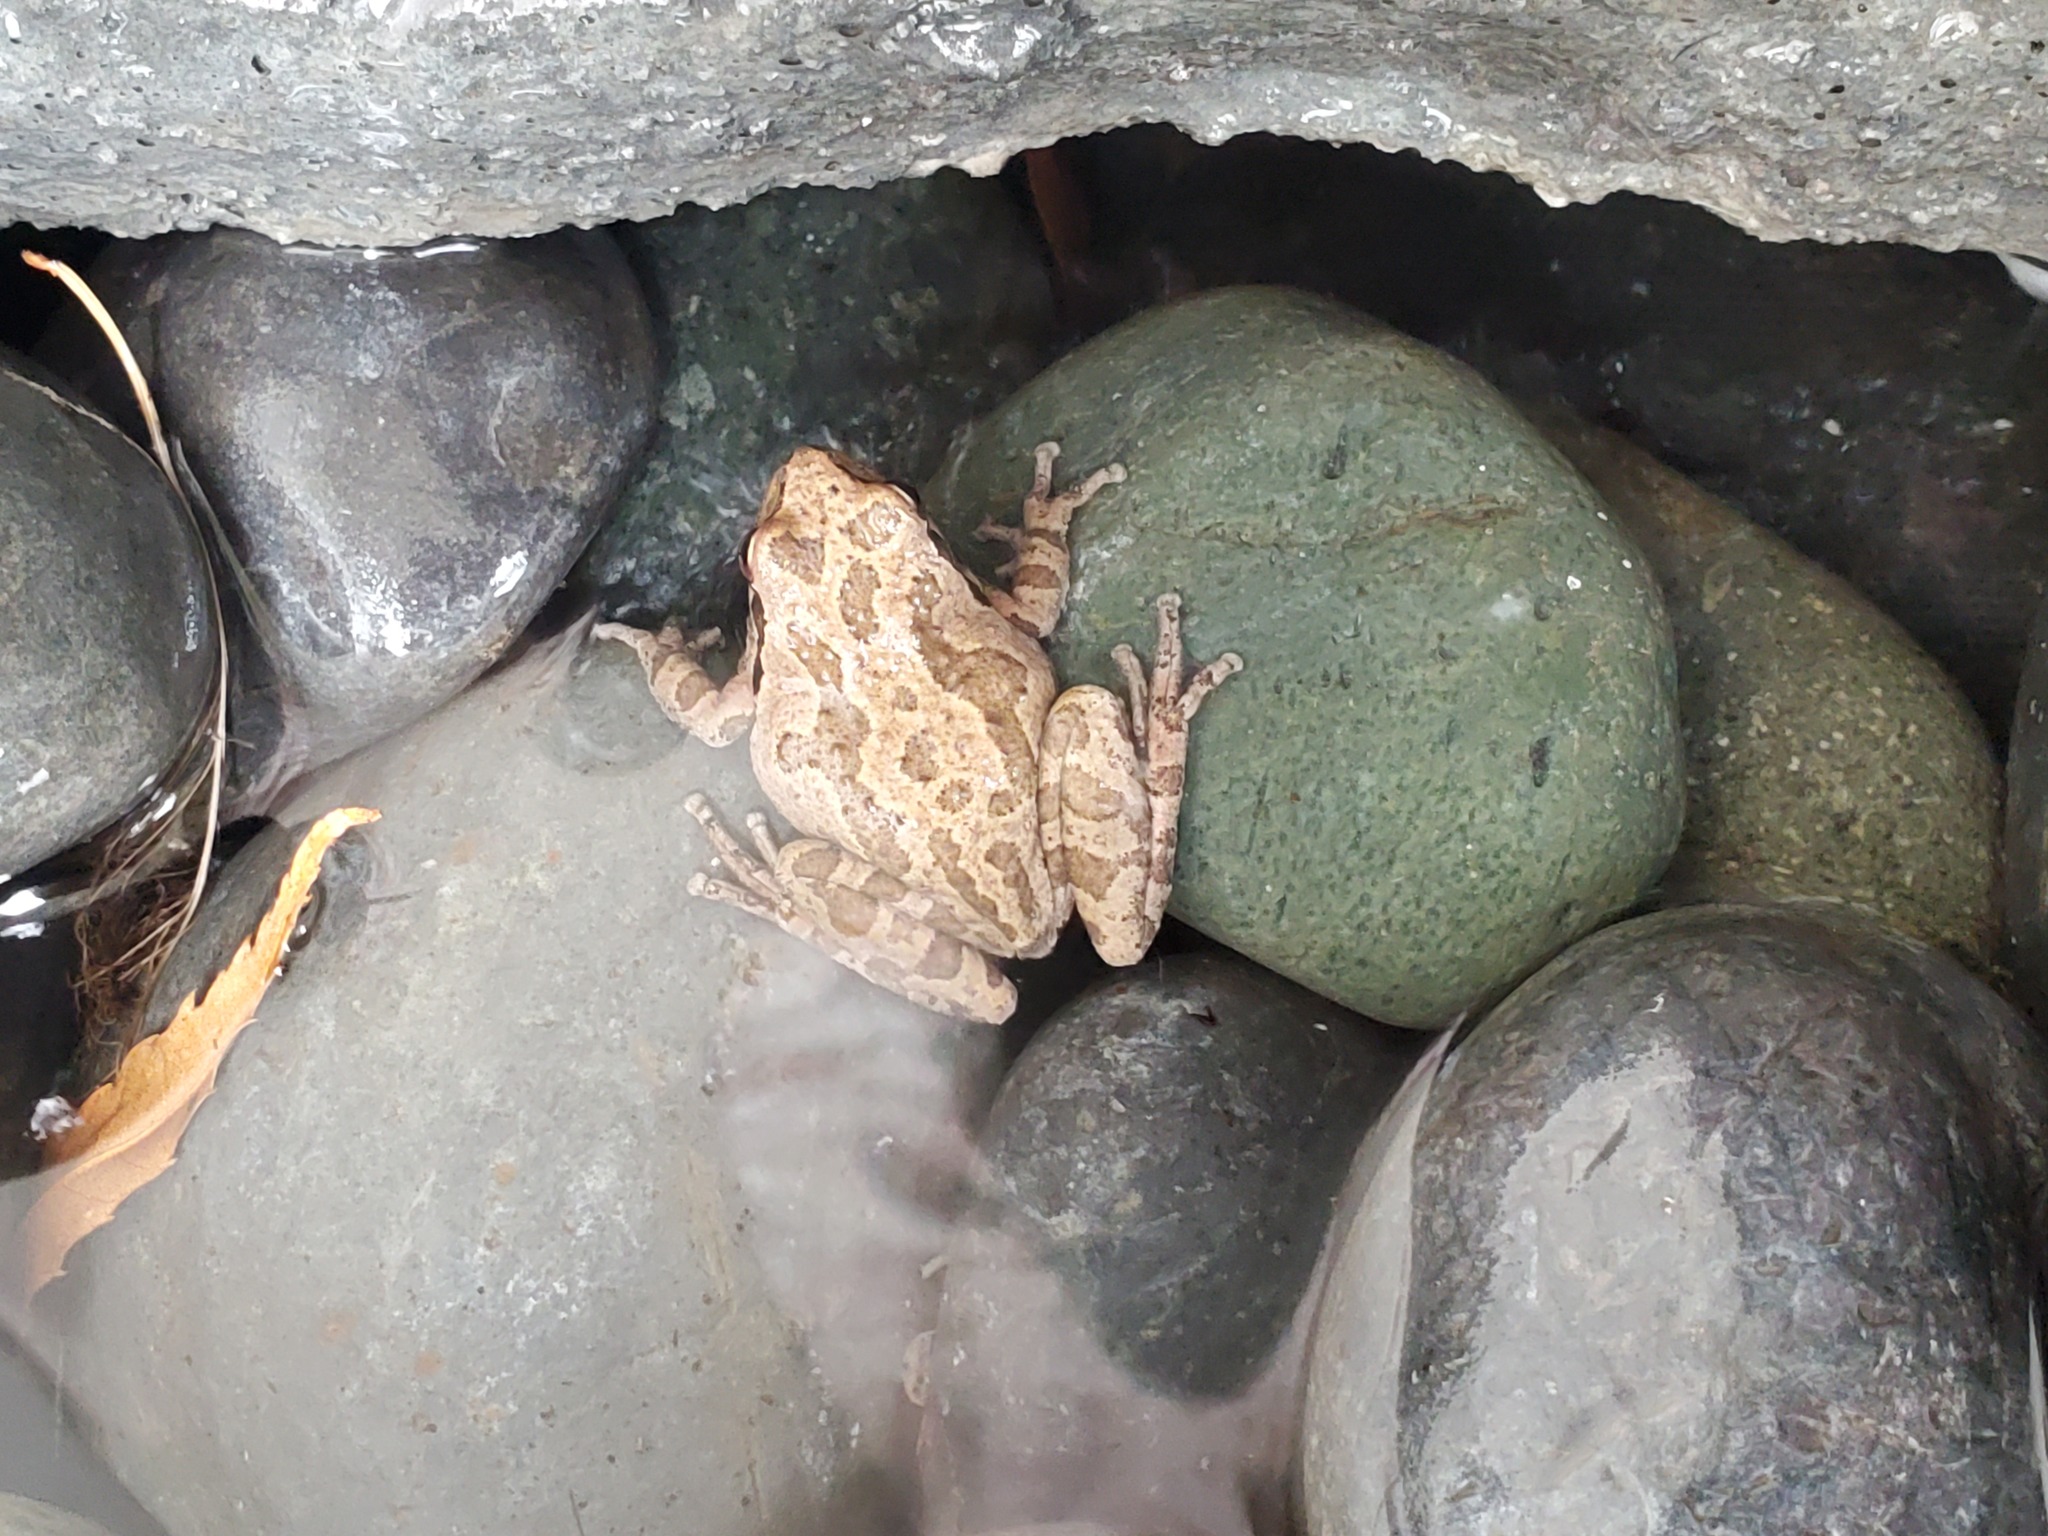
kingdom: Animalia
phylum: Chordata
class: Amphibia
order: Anura
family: Hylidae
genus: Pseudacris
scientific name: Pseudacris regilla
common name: Pacific chorus frog
